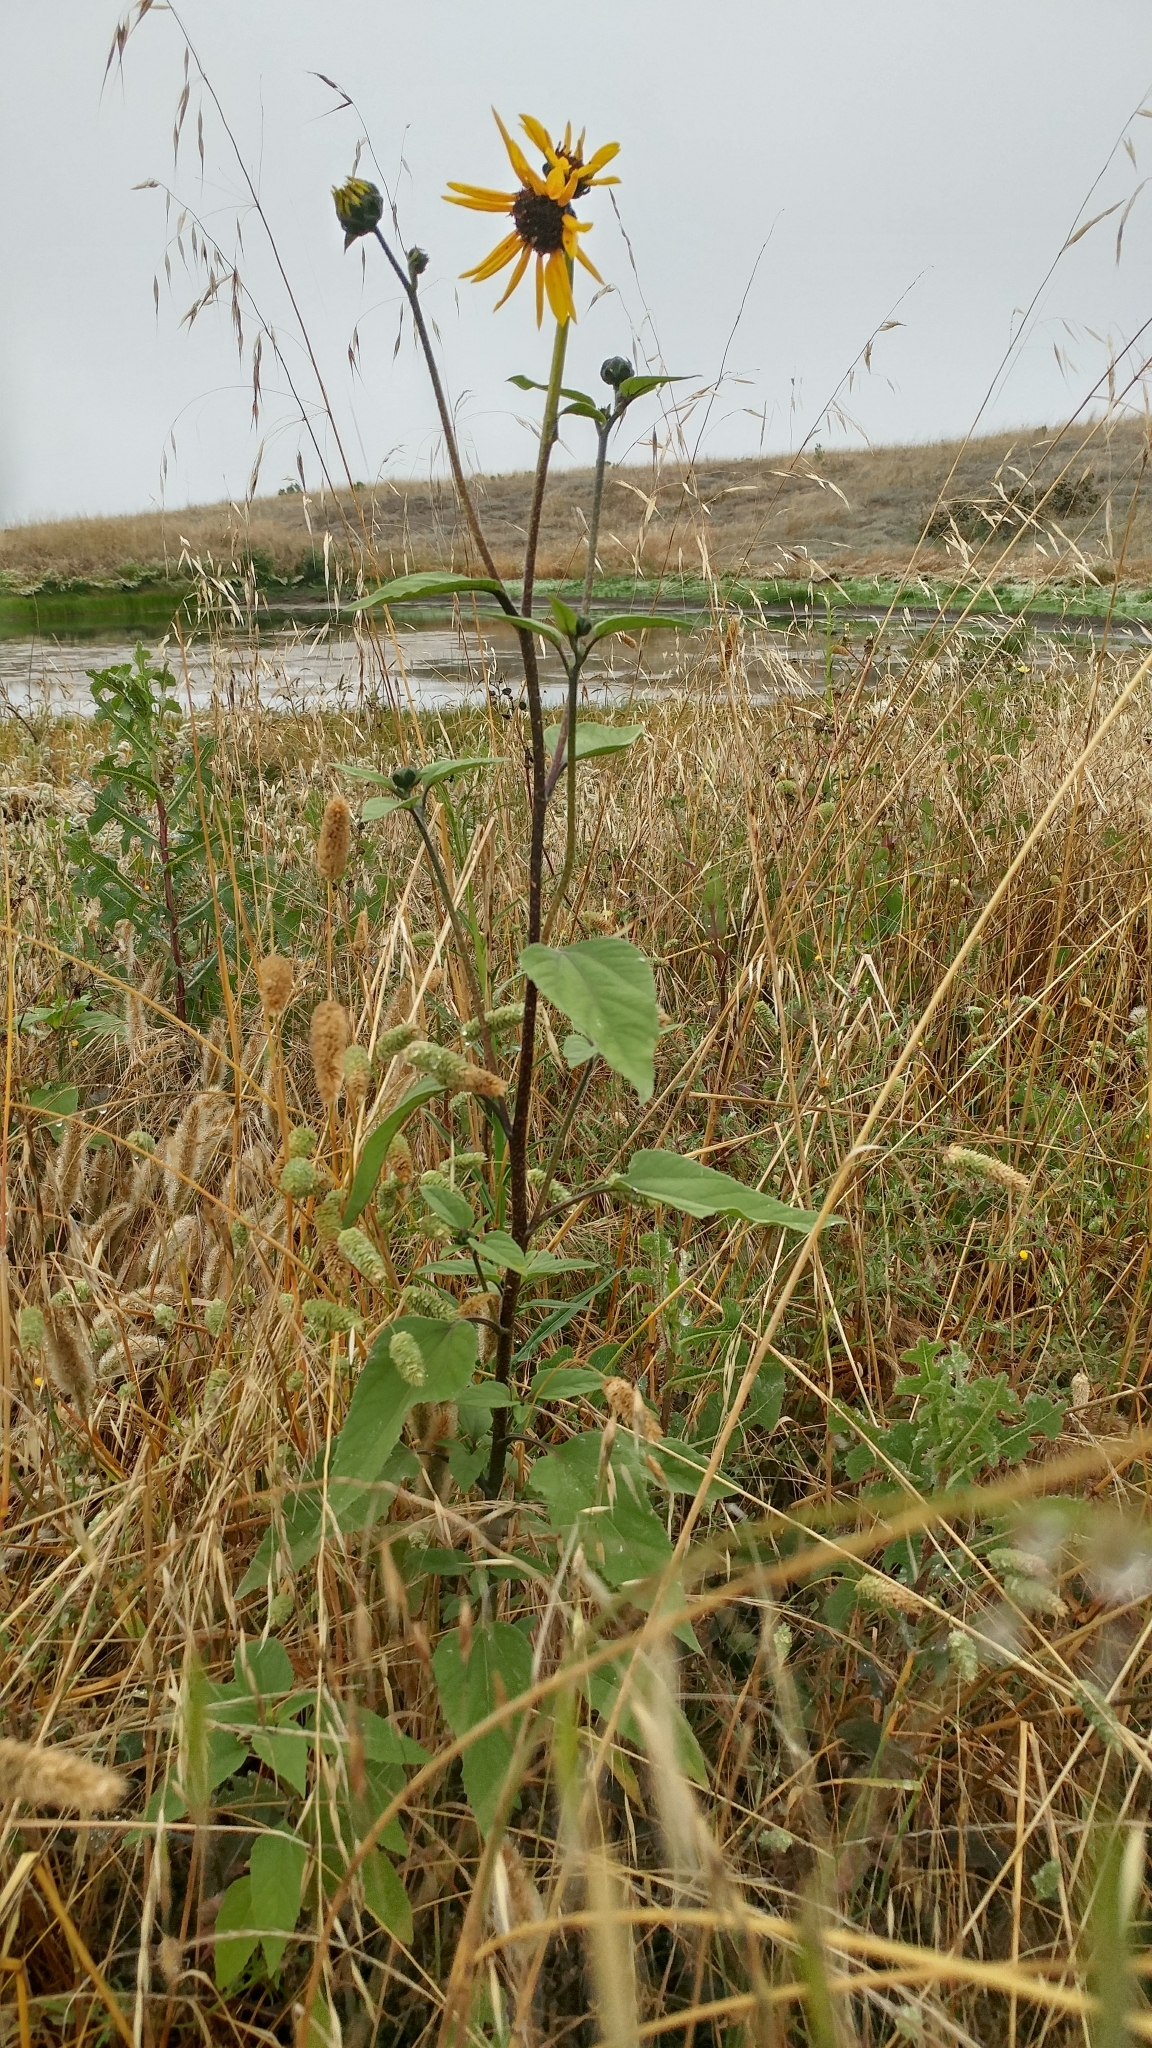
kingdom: Plantae
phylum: Tracheophyta
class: Magnoliopsida
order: Asterales
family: Asteraceae
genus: Helianthus
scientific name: Helianthus annuus
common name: Sunflower
